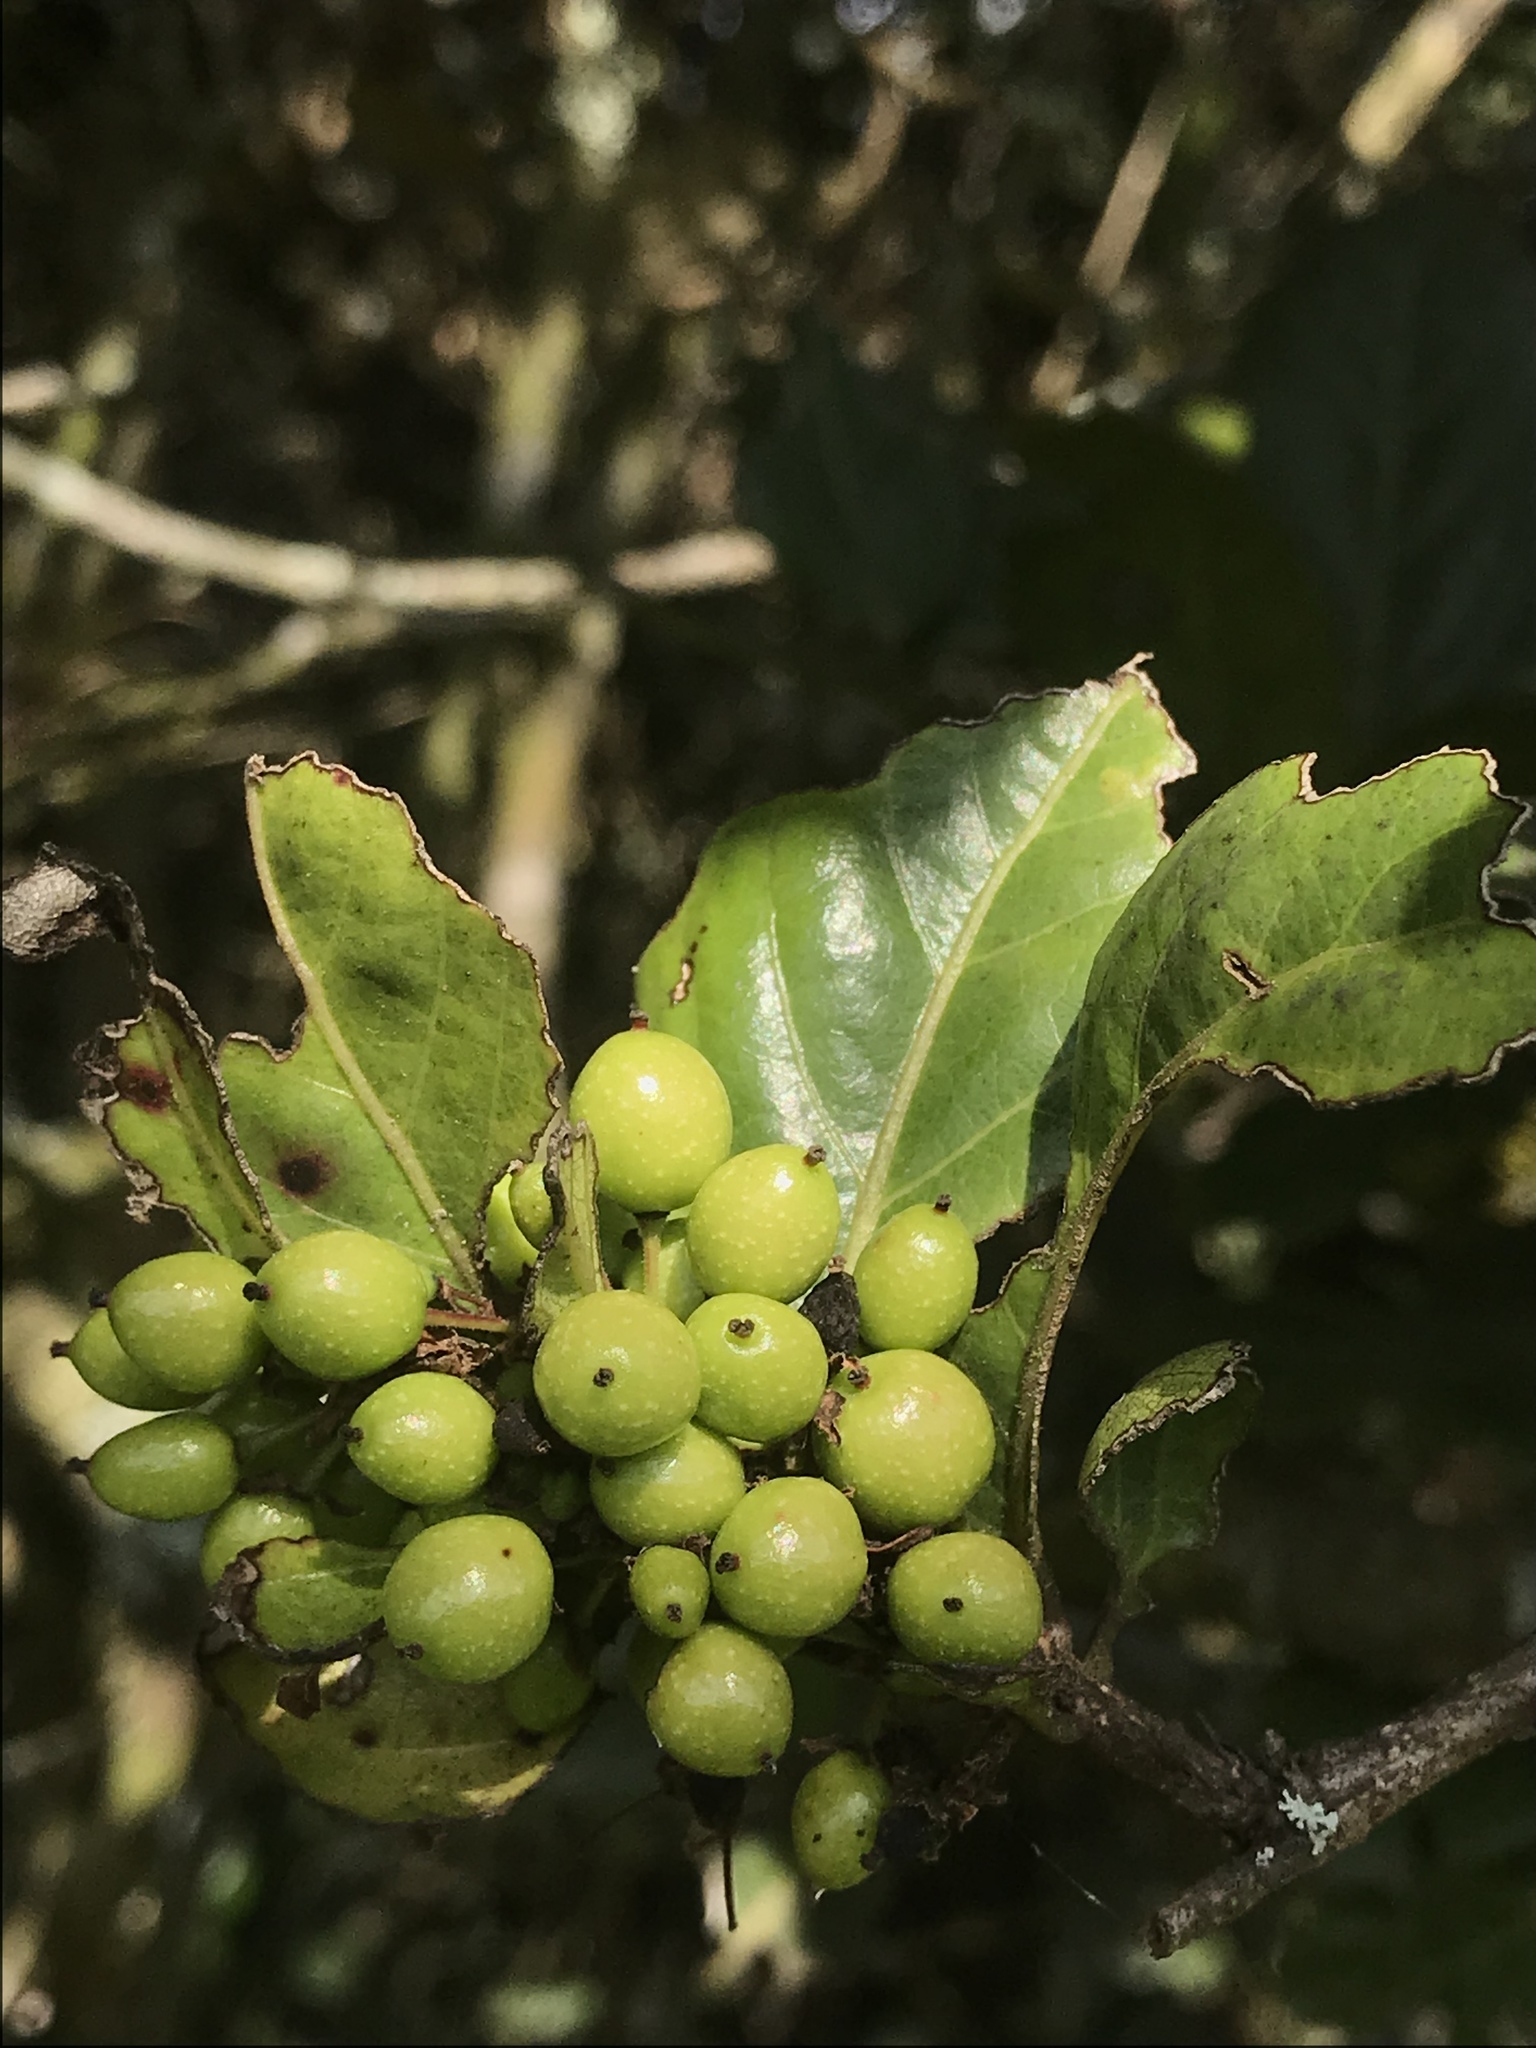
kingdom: Plantae
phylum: Tracheophyta
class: Magnoliopsida
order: Malpighiales
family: Salicaceae
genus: Xylosma
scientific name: Xylosma spiculifera
